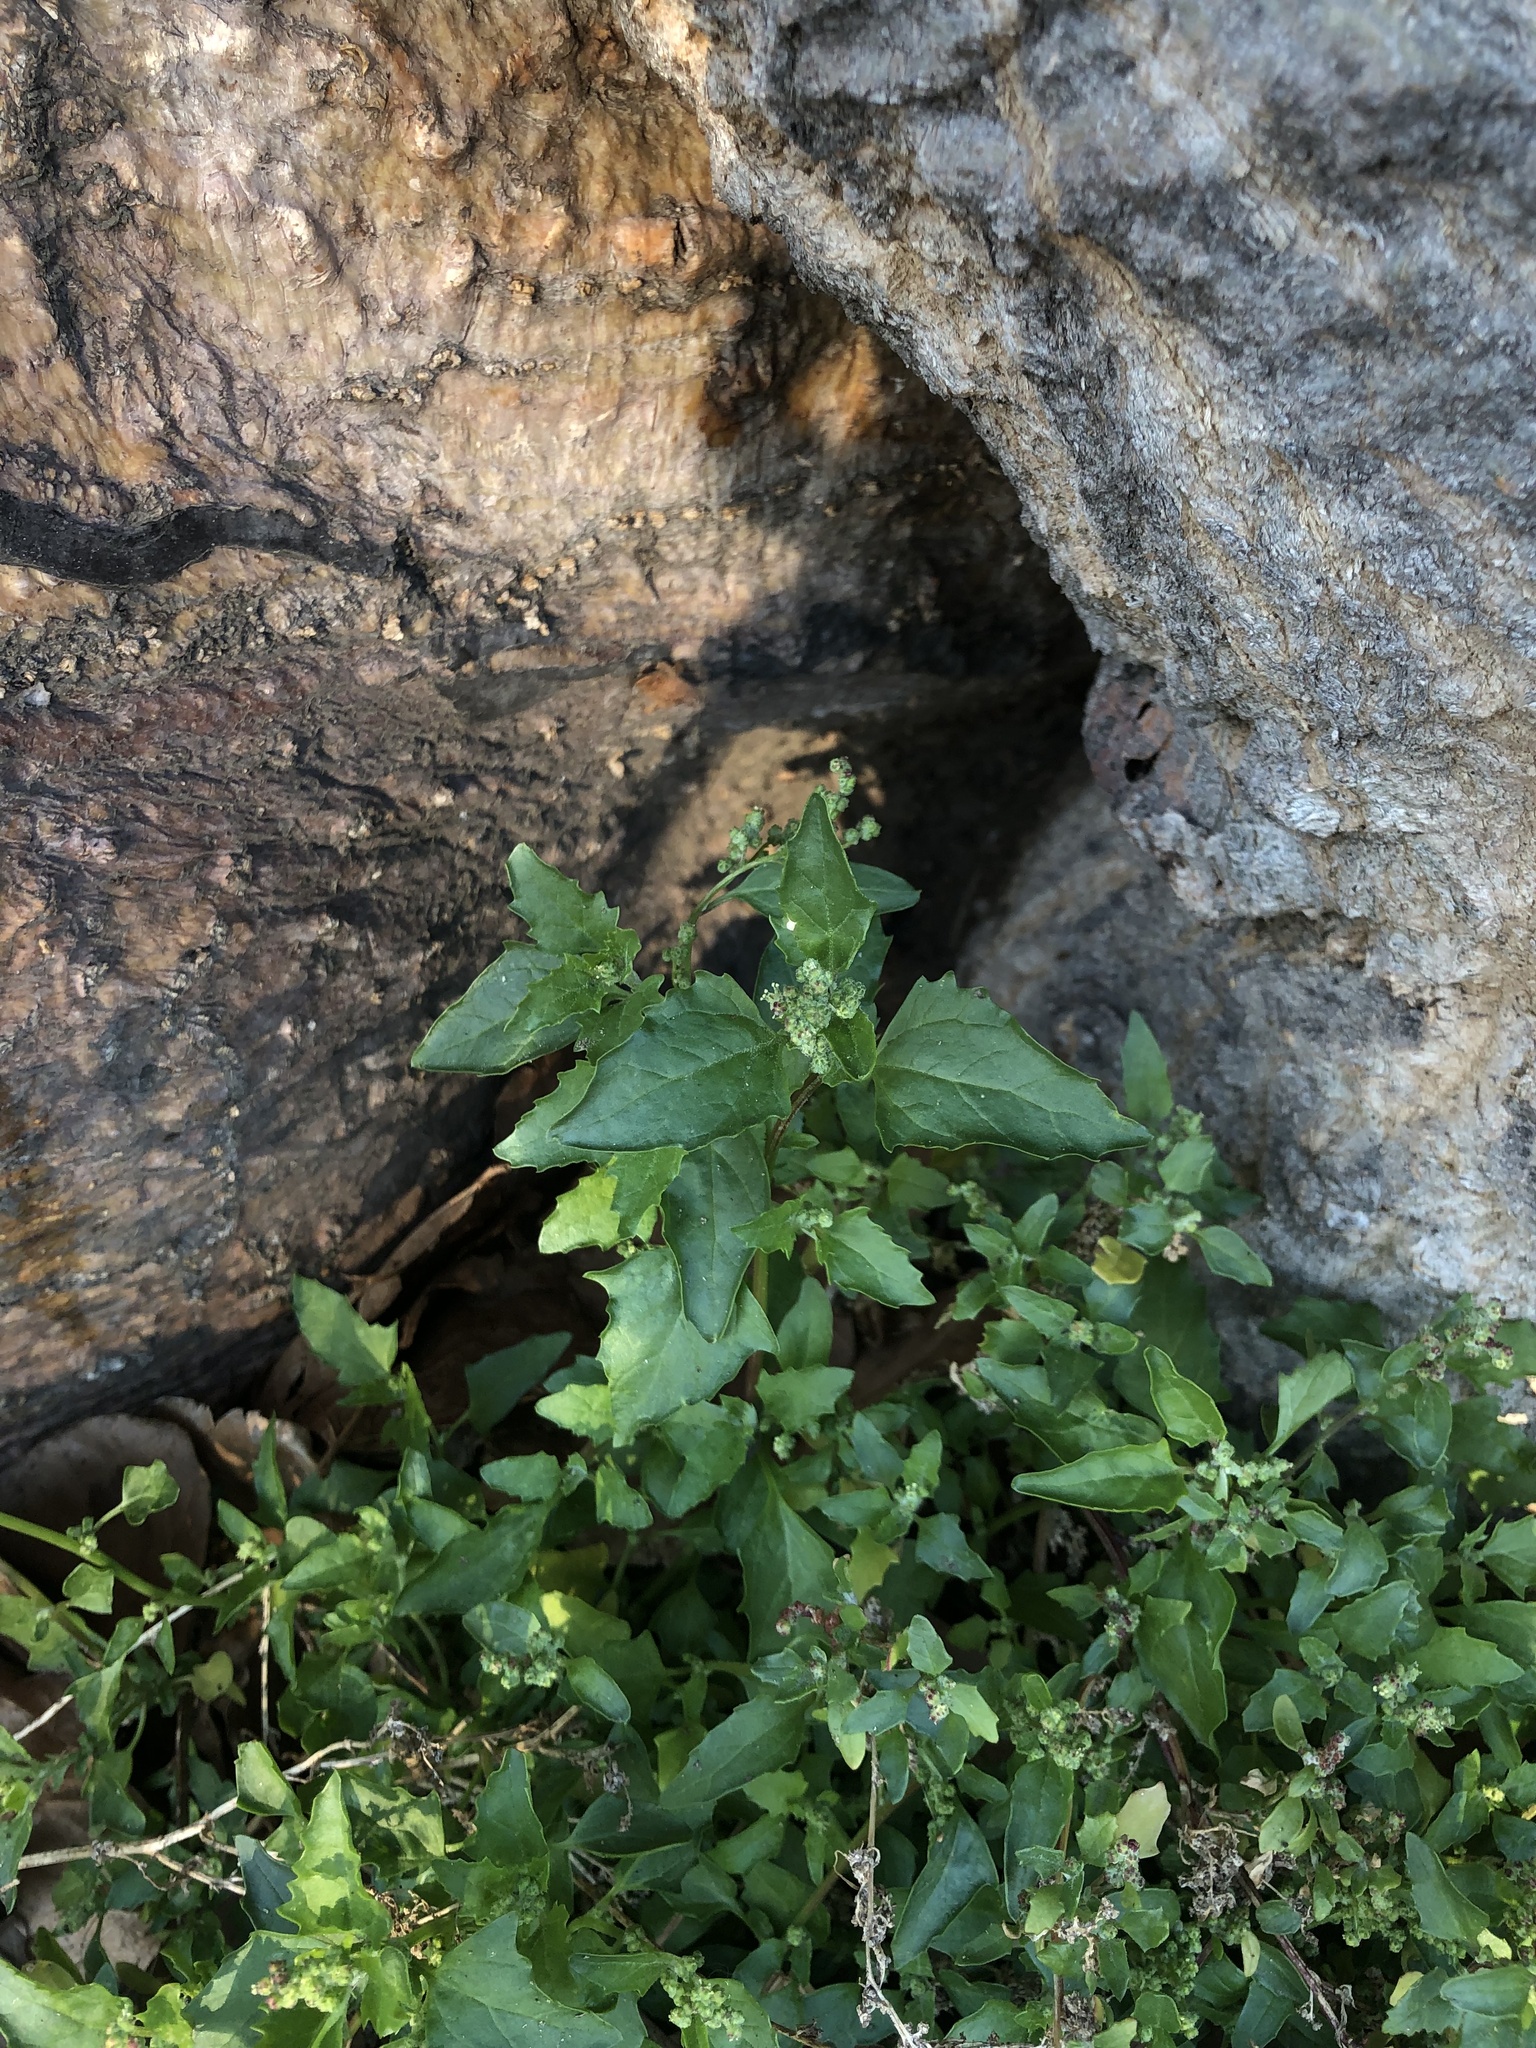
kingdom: Plantae
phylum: Tracheophyta
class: Magnoliopsida
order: Caryophyllales
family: Amaranthaceae
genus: Chenopodiastrum
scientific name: Chenopodiastrum murale
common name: Sowbane
